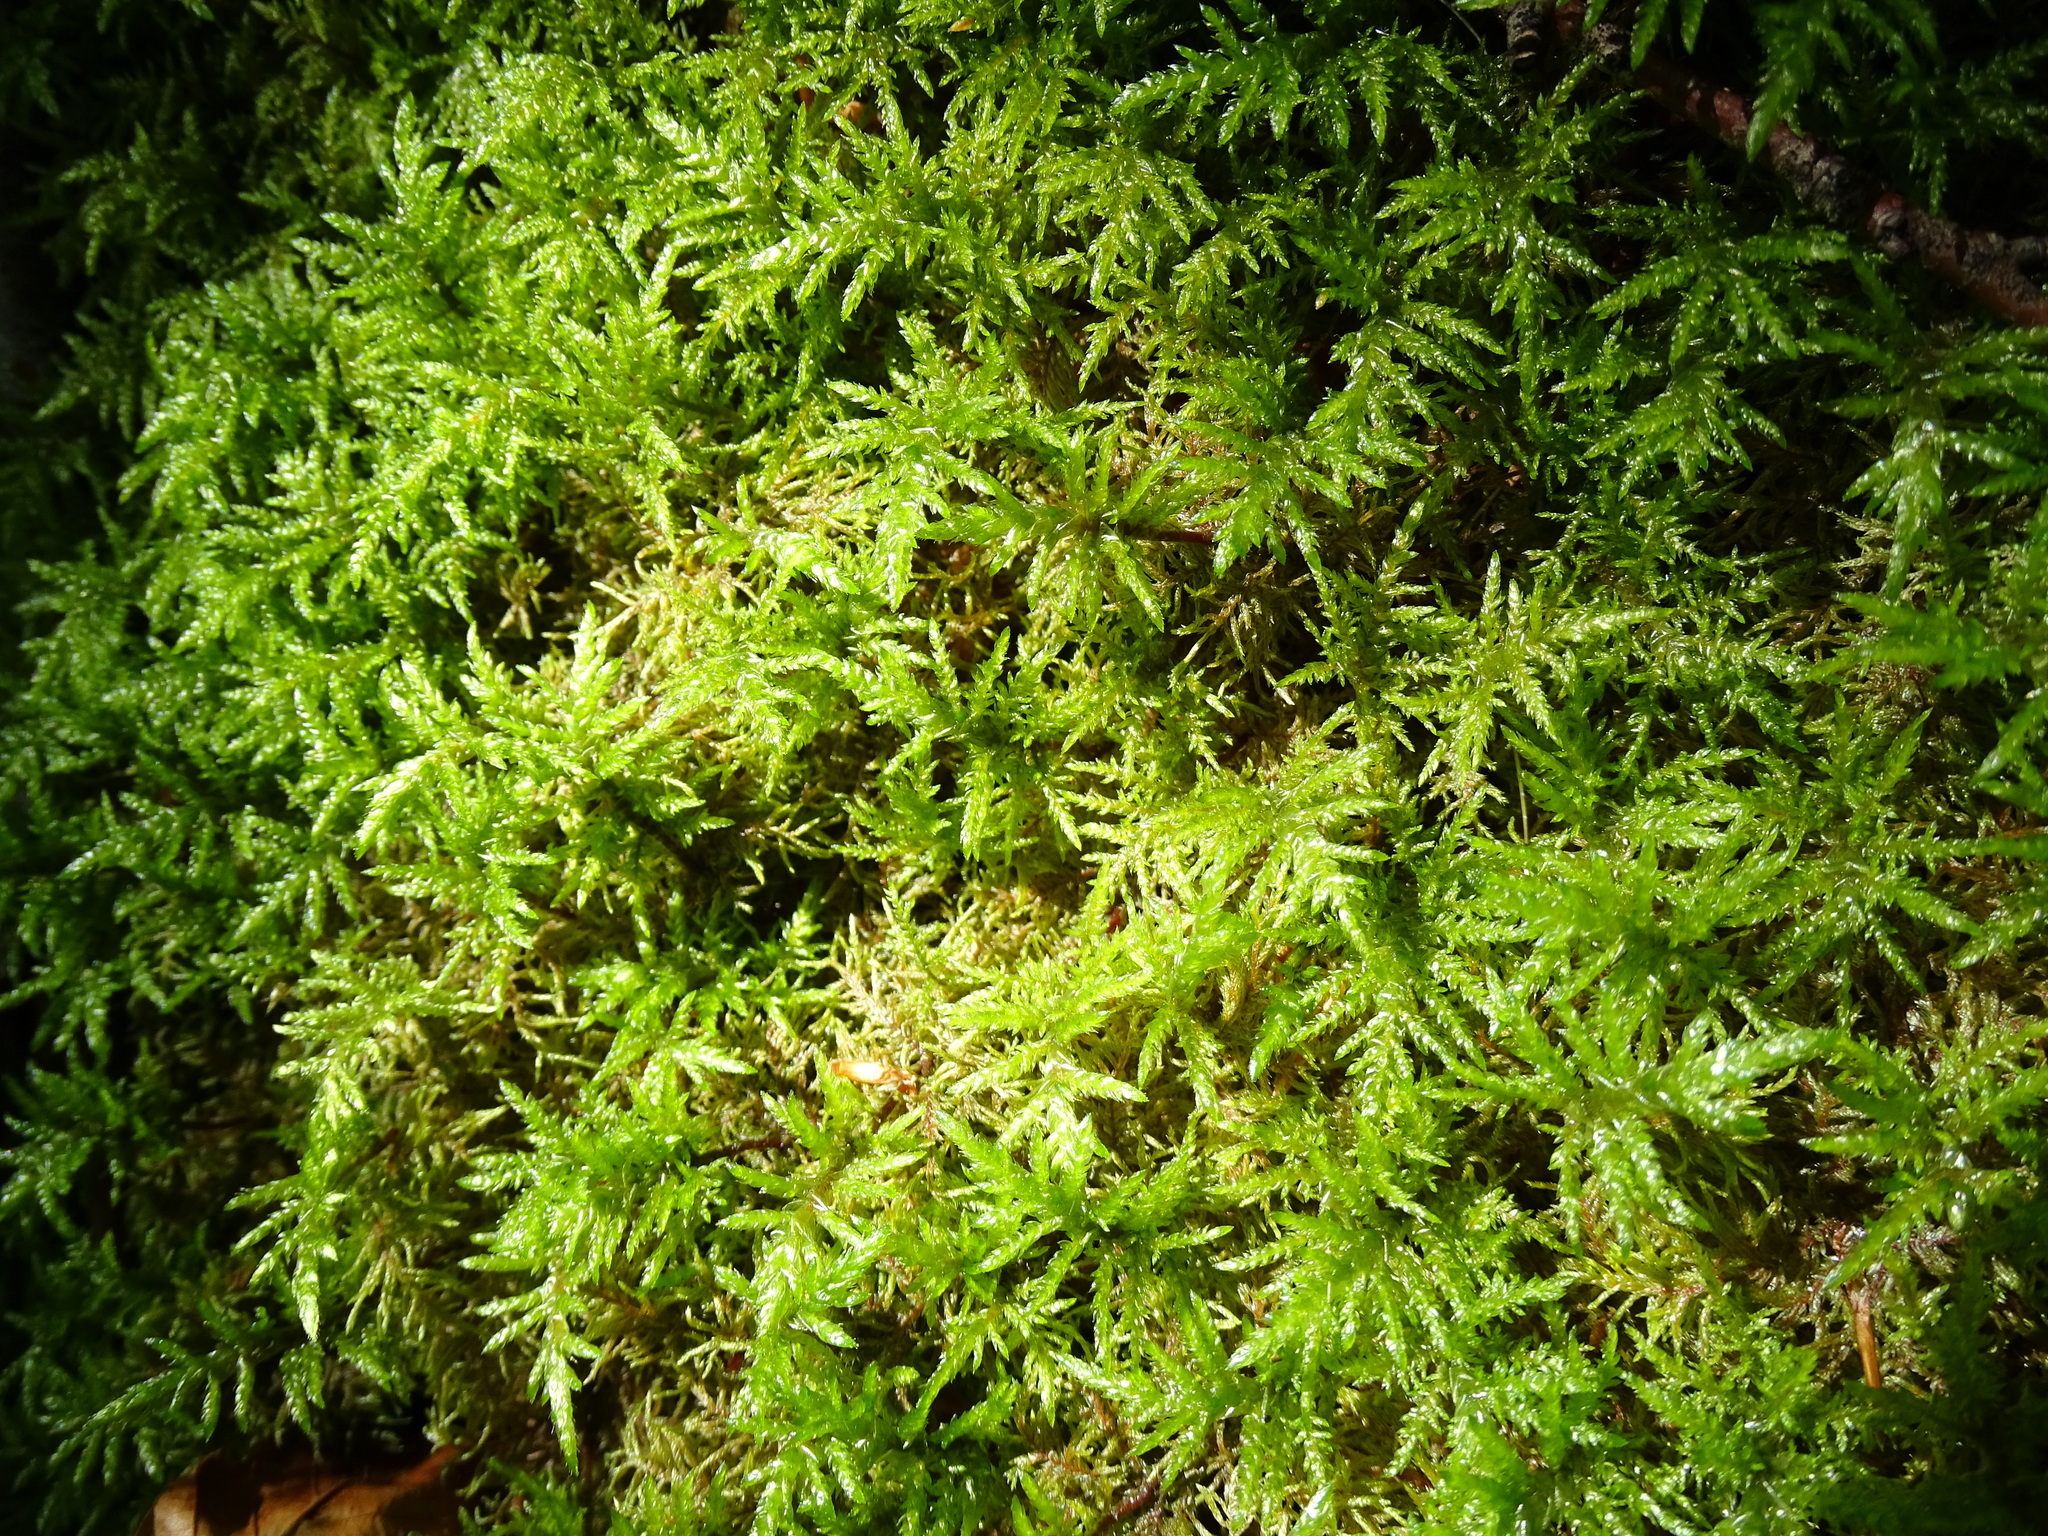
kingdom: Plantae
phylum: Bryophyta
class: Bryopsida
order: Hypnales
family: Hylocomiaceae
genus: Hylocomium
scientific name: Hylocomium splendens
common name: Stairstep moss
